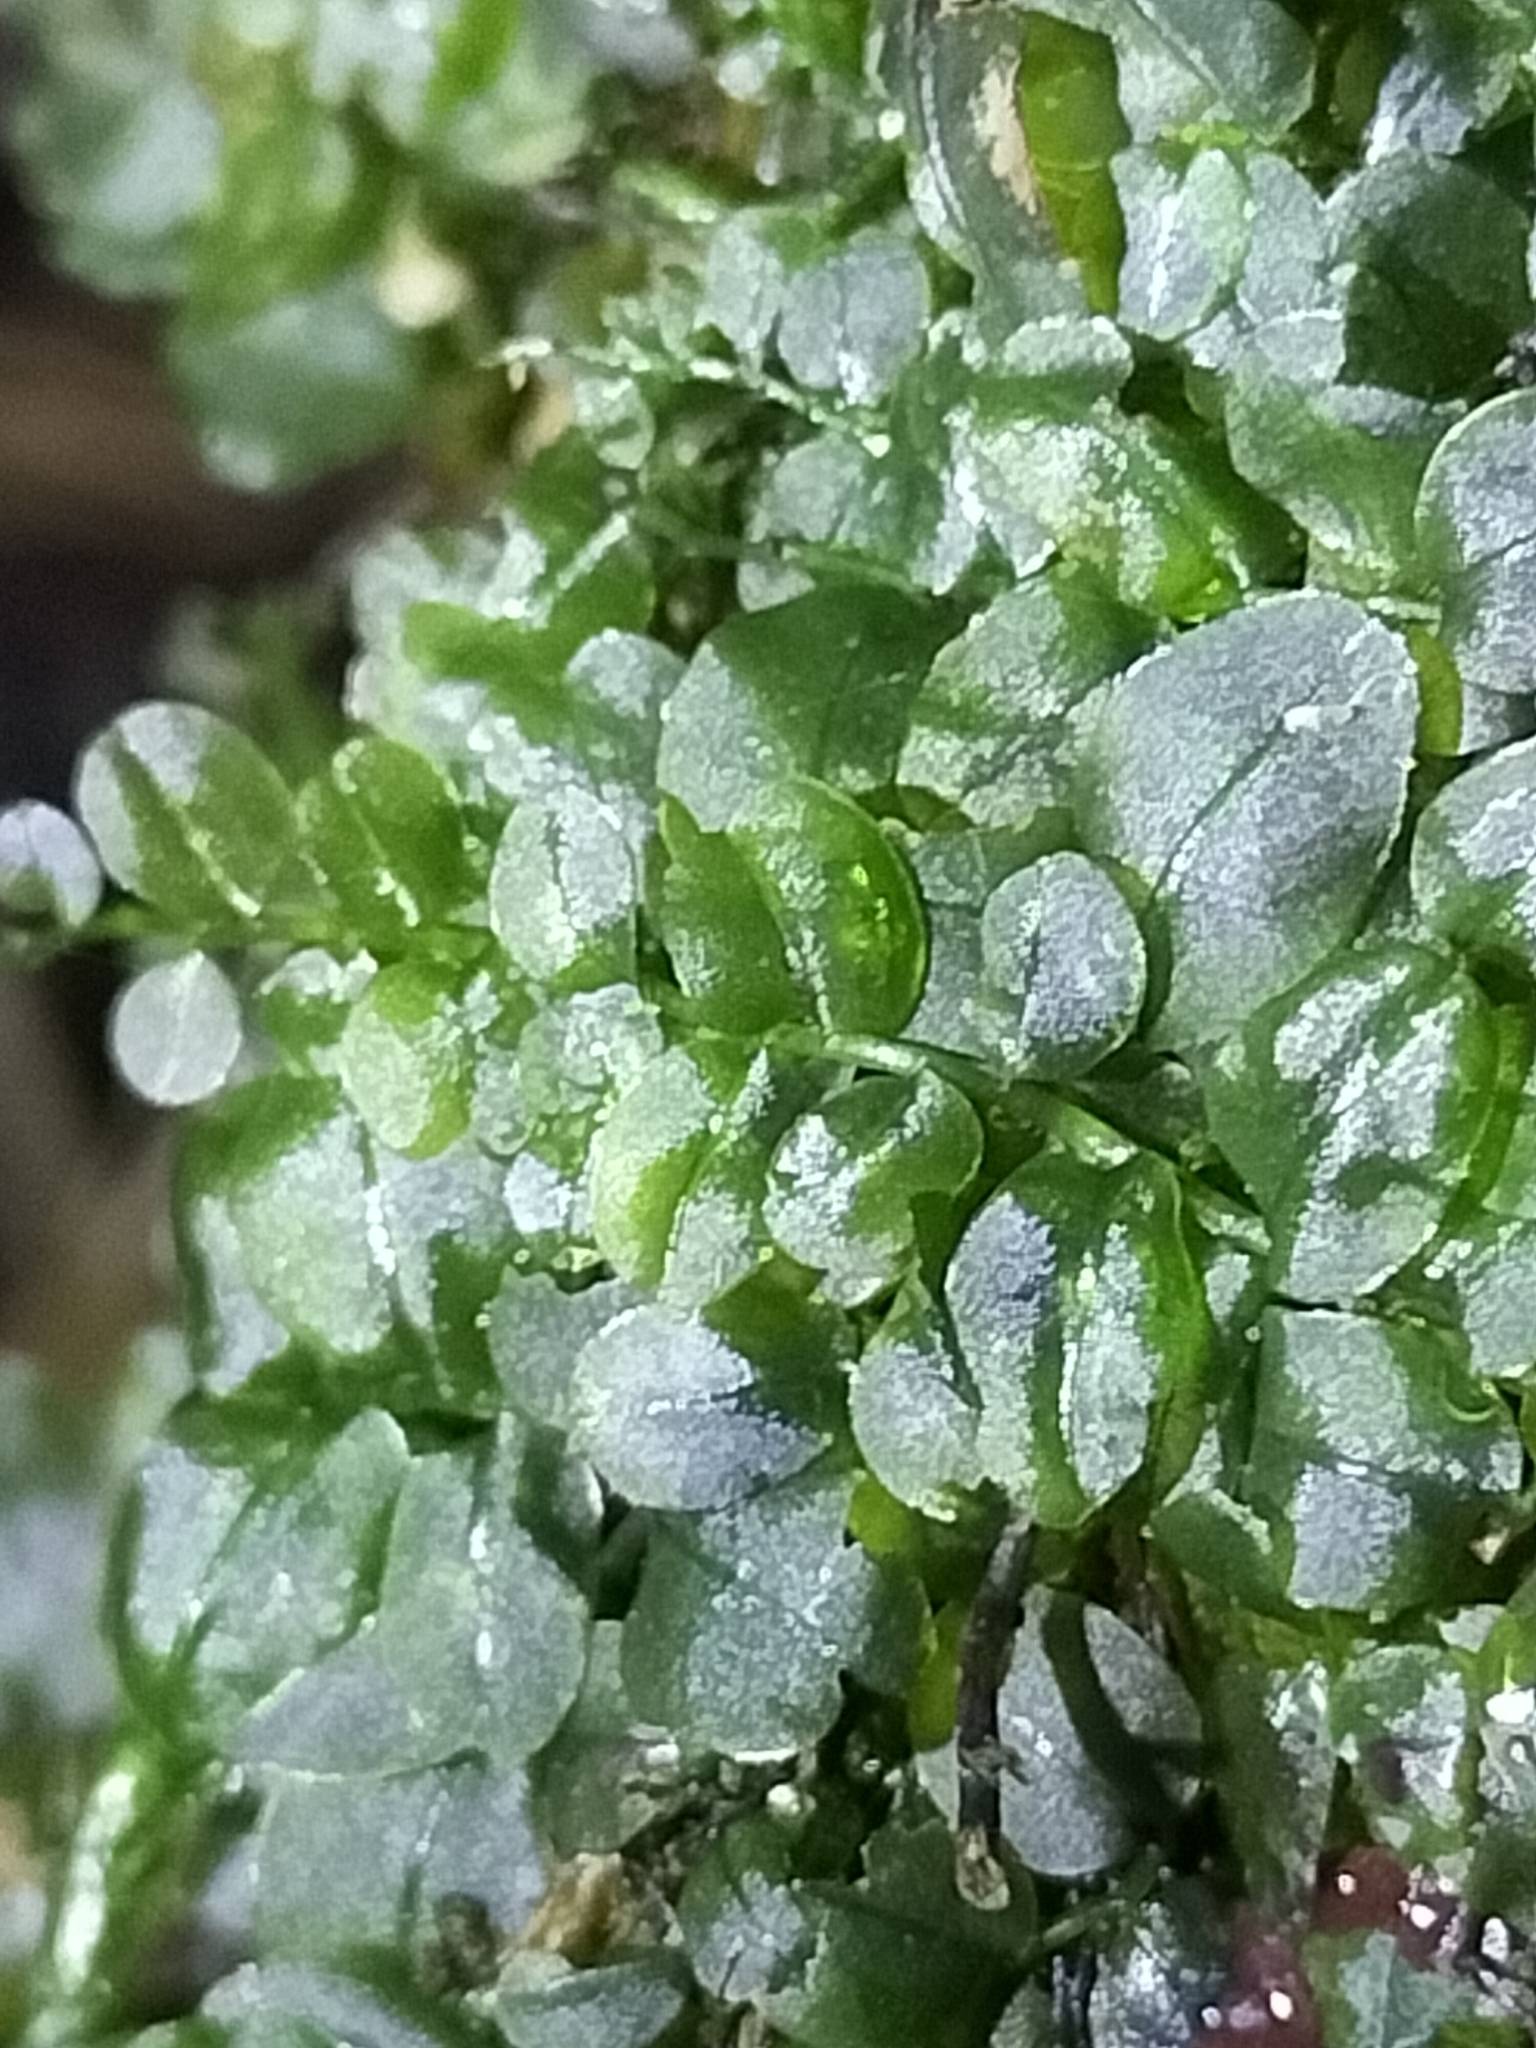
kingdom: Plantae
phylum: Bryophyta
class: Bryopsida
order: Bryales
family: Mniaceae
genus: Plagiomnium
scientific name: Plagiomnium novae-zealandiae
